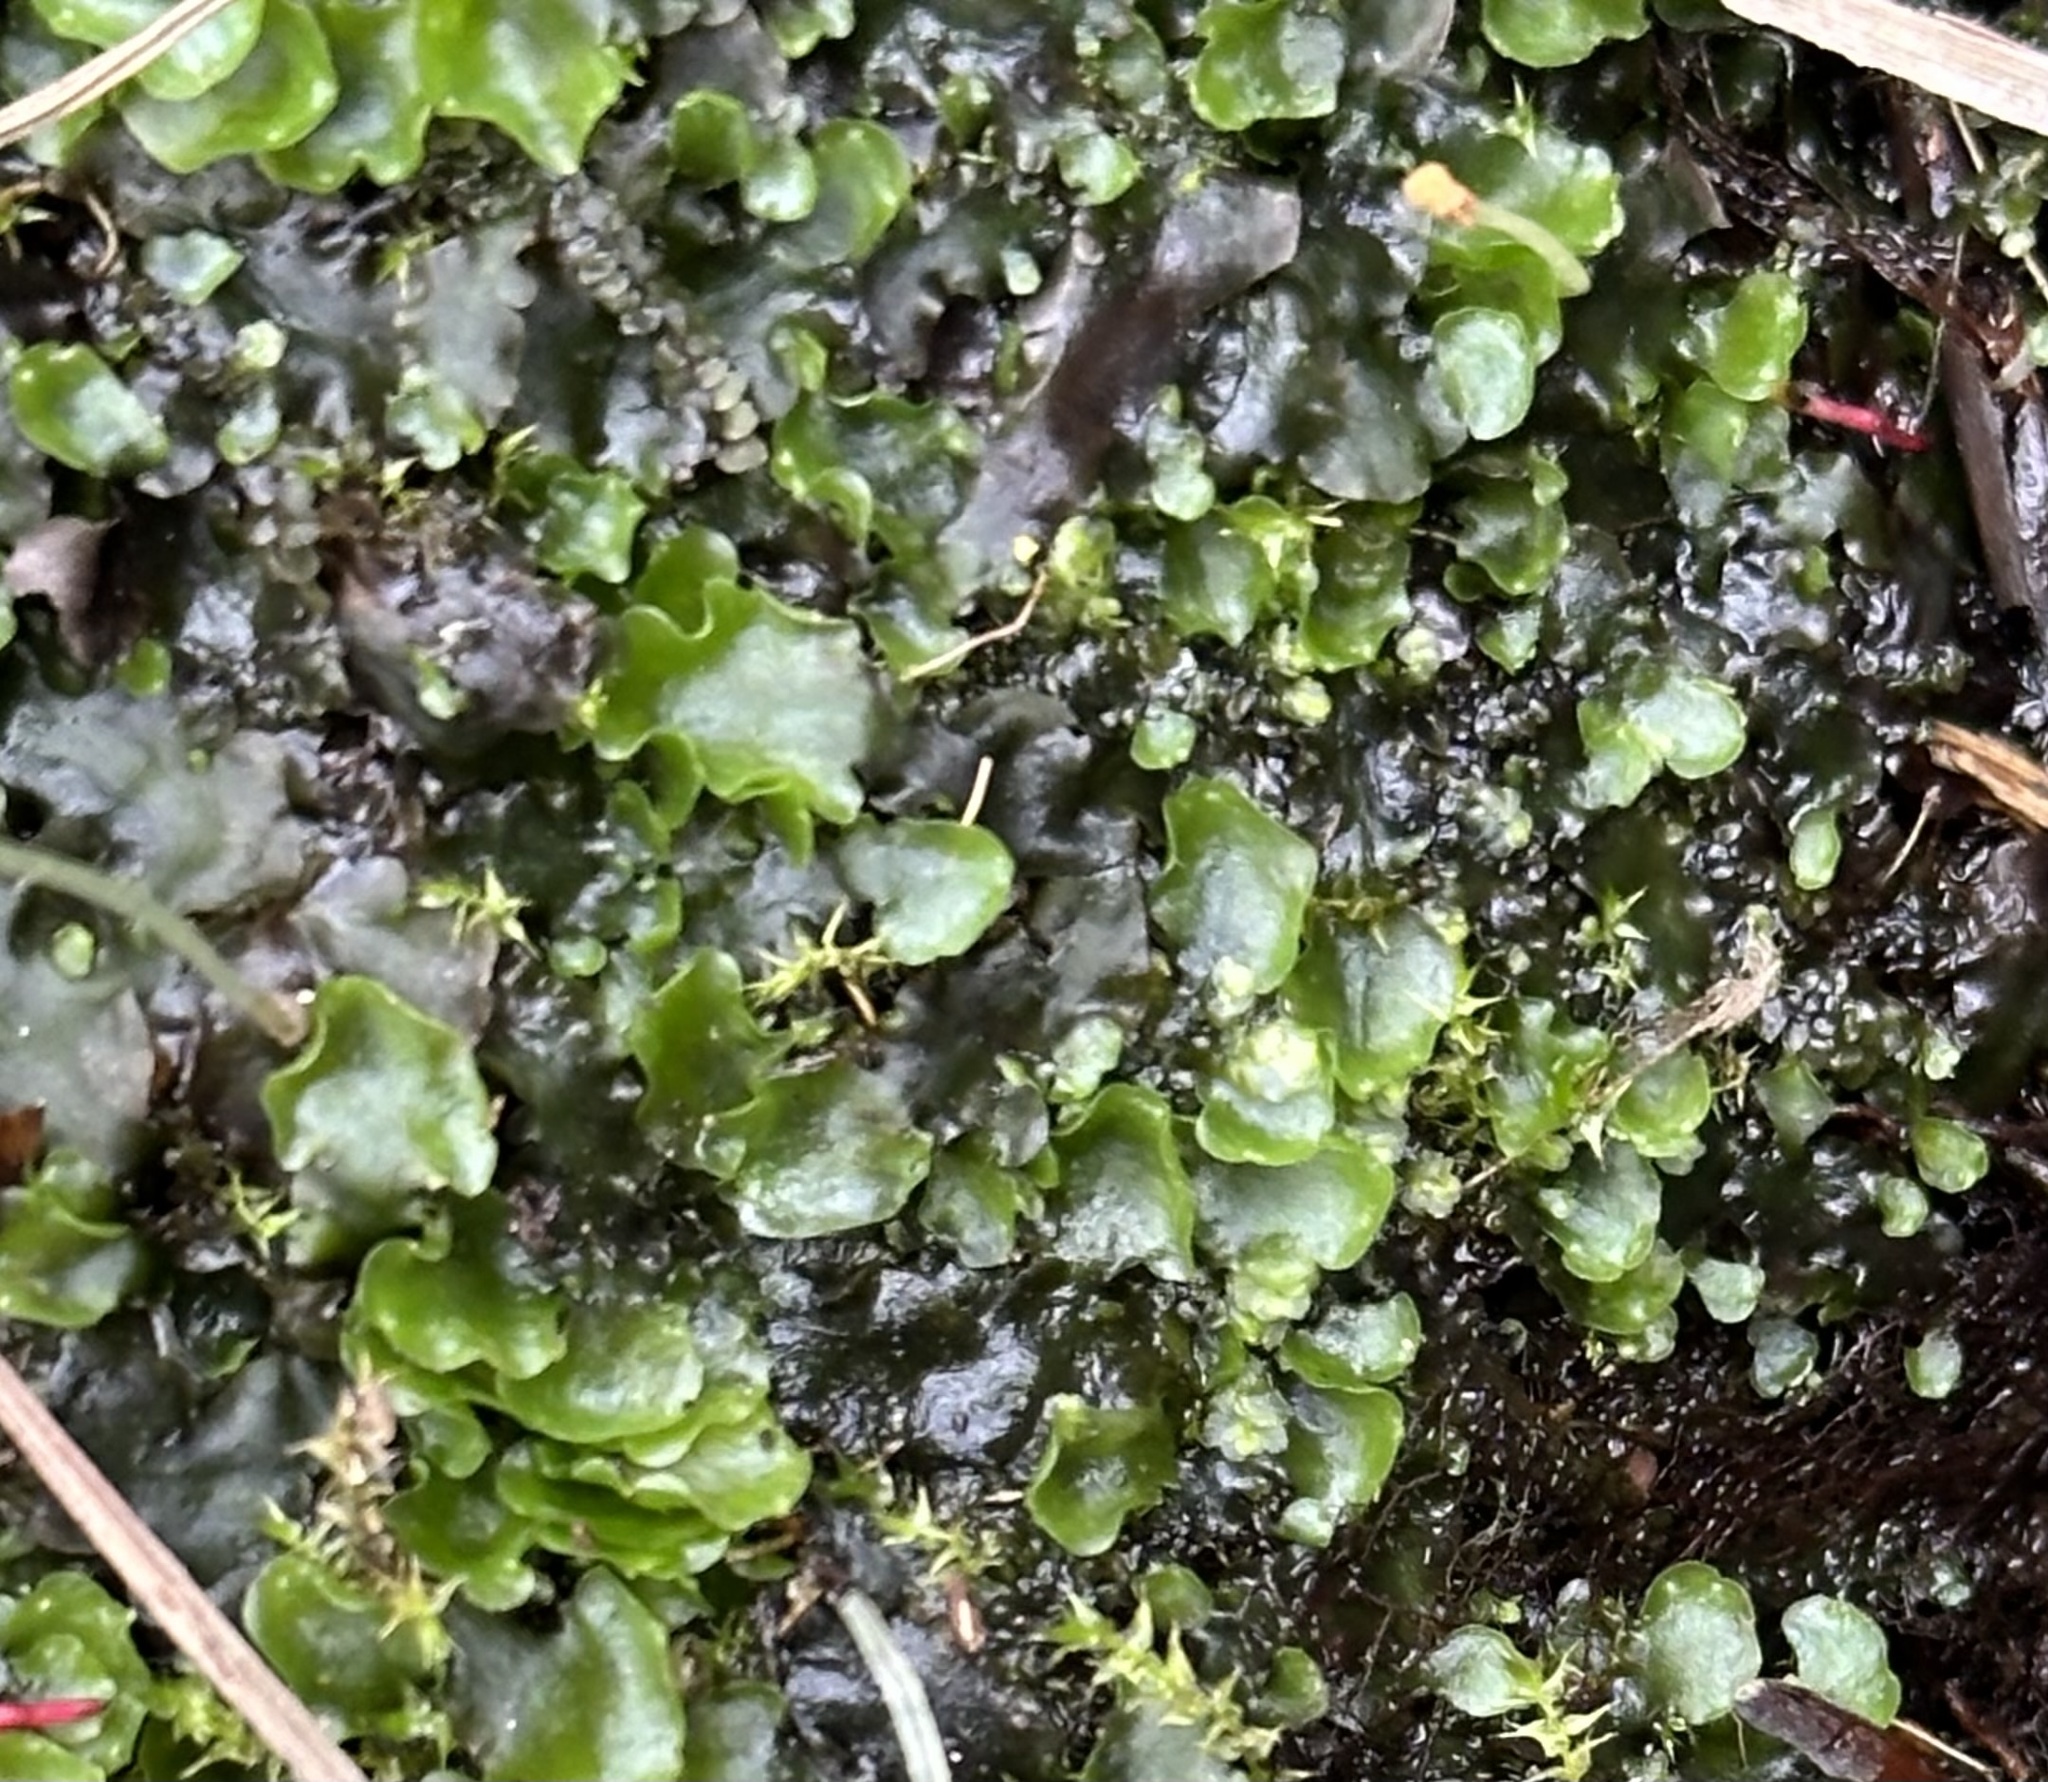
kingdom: Plantae
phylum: Marchantiophyta
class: Jungermanniopsida
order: Pelliales
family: Pelliaceae
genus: Pellia
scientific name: Pellia epiphylla
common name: Common pellia
